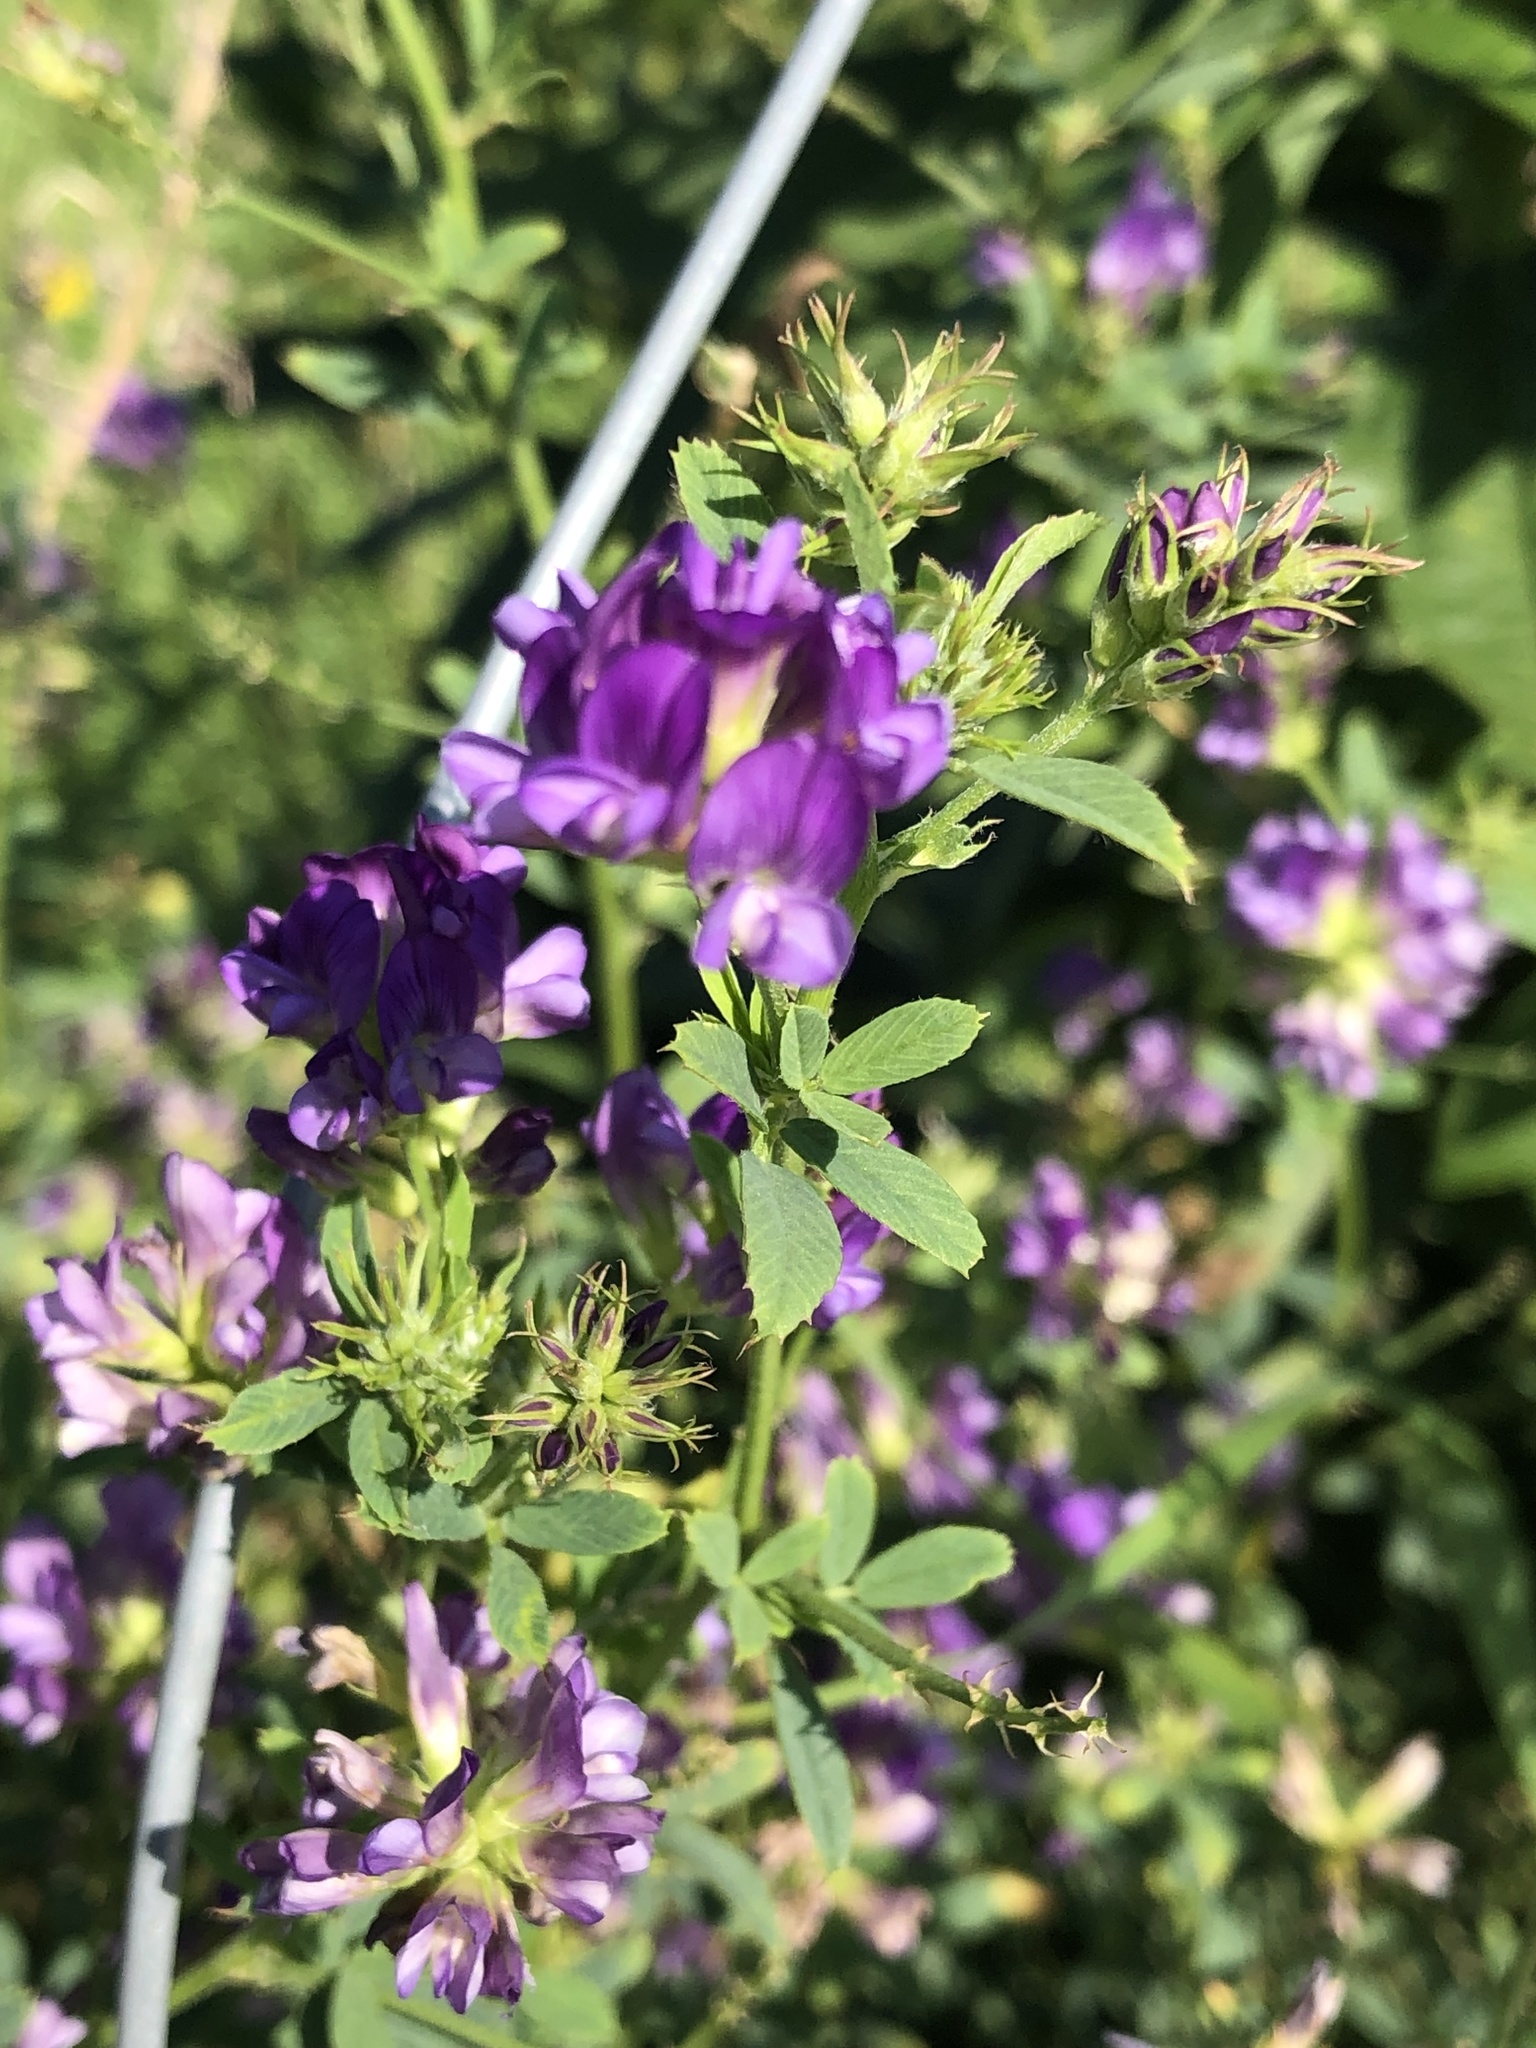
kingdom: Plantae
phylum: Tracheophyta
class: Magnoliopsida
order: Fabales
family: Fabaceae
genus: Medicago
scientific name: Medicago sativa
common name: Alfalfa
